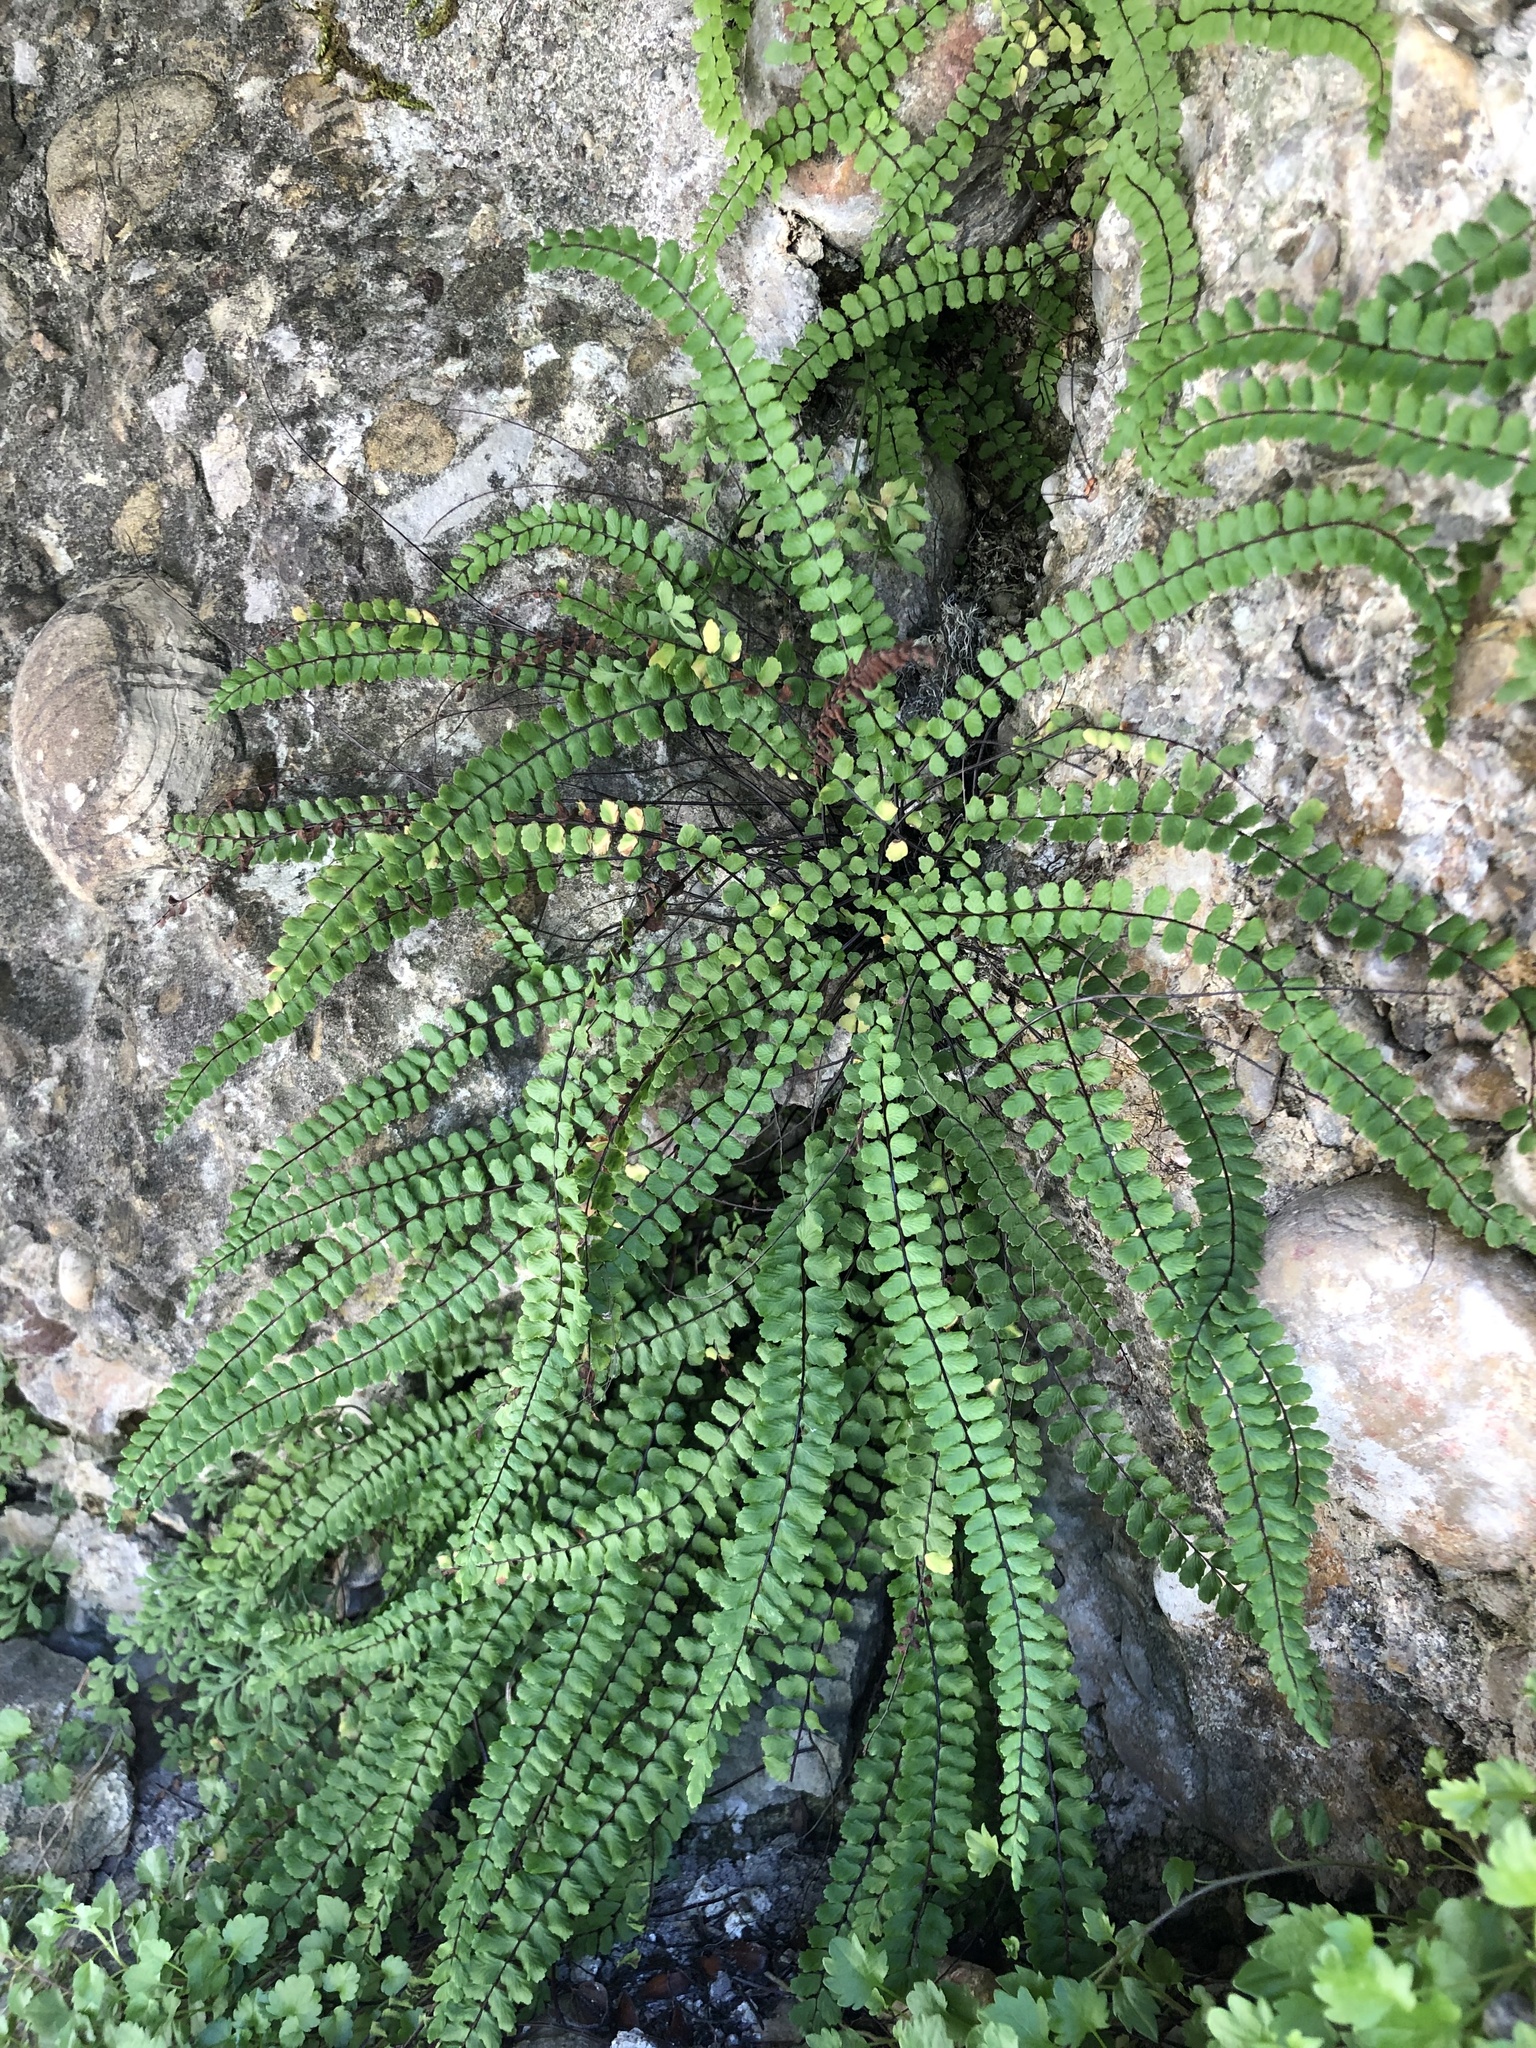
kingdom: Plantae
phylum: Tracheophyta
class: Polypodiopsida
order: Polypodiales
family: Aspleniaceae
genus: Asplenium
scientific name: Asplenium trichomanes
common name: Maidenhair spleenwort
